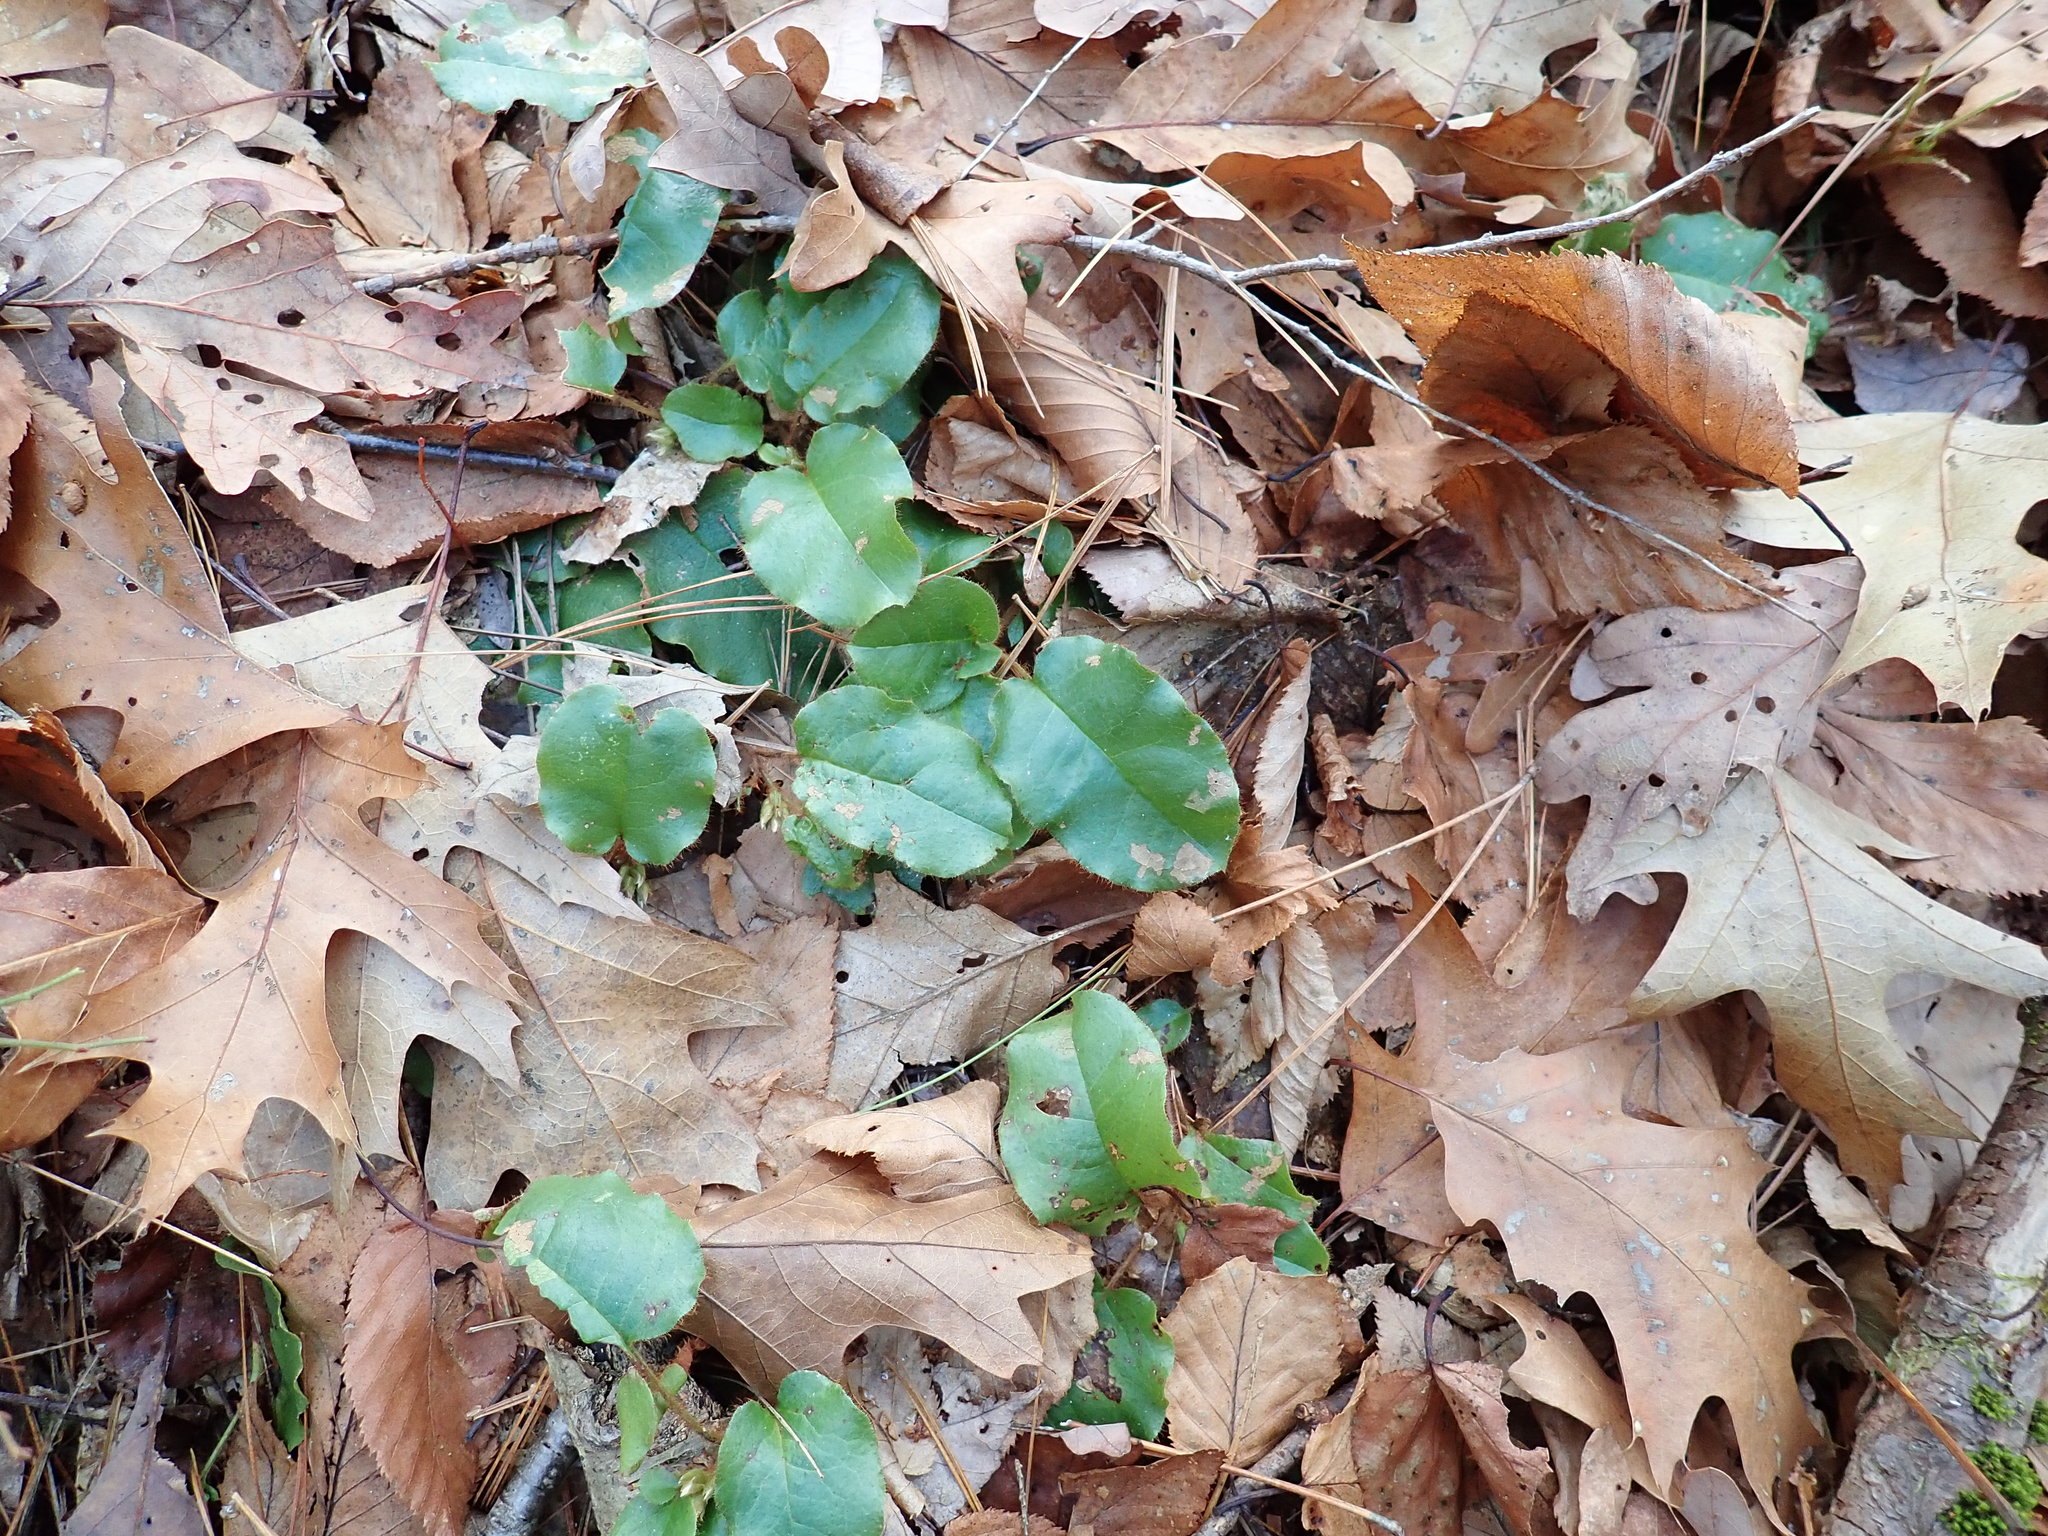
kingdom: Plantae
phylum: Tracheophyta
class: Magnoliopsida
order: Ericales
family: Ericaceae
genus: Epigaea
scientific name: Epigaea repens
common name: Gravelroot
